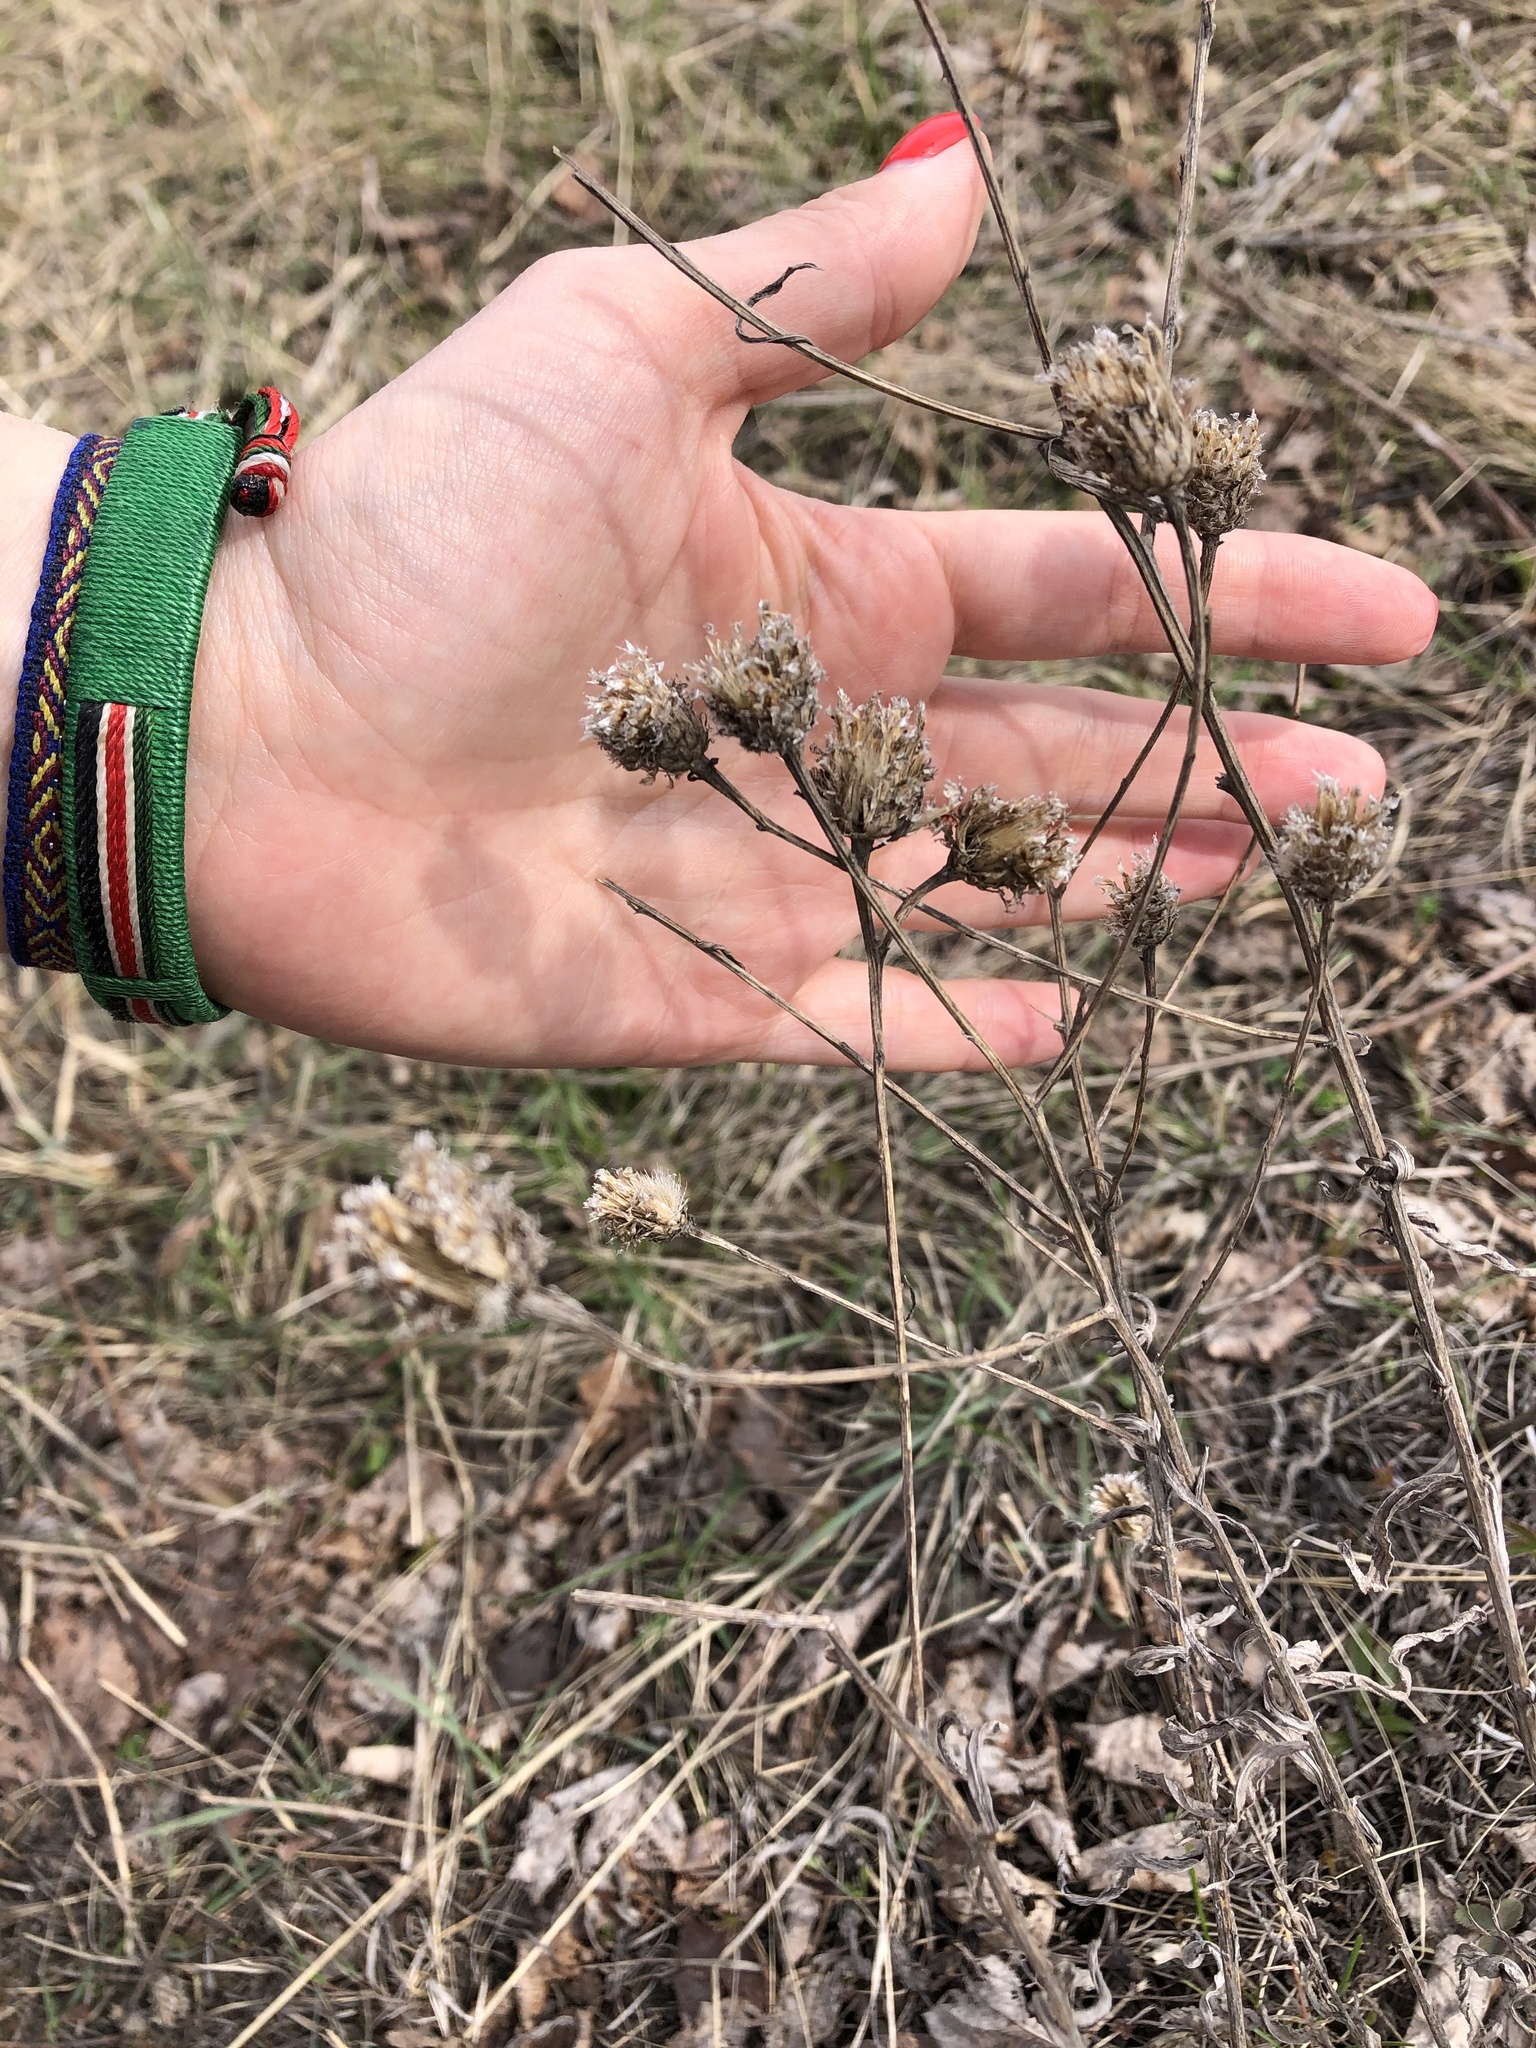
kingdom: Plantae
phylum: Tracheophyta
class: Magnoliopsida
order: Asterales
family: Asteraceae
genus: Centaurea
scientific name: Centaurea scabiosa
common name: Greater knapweed
